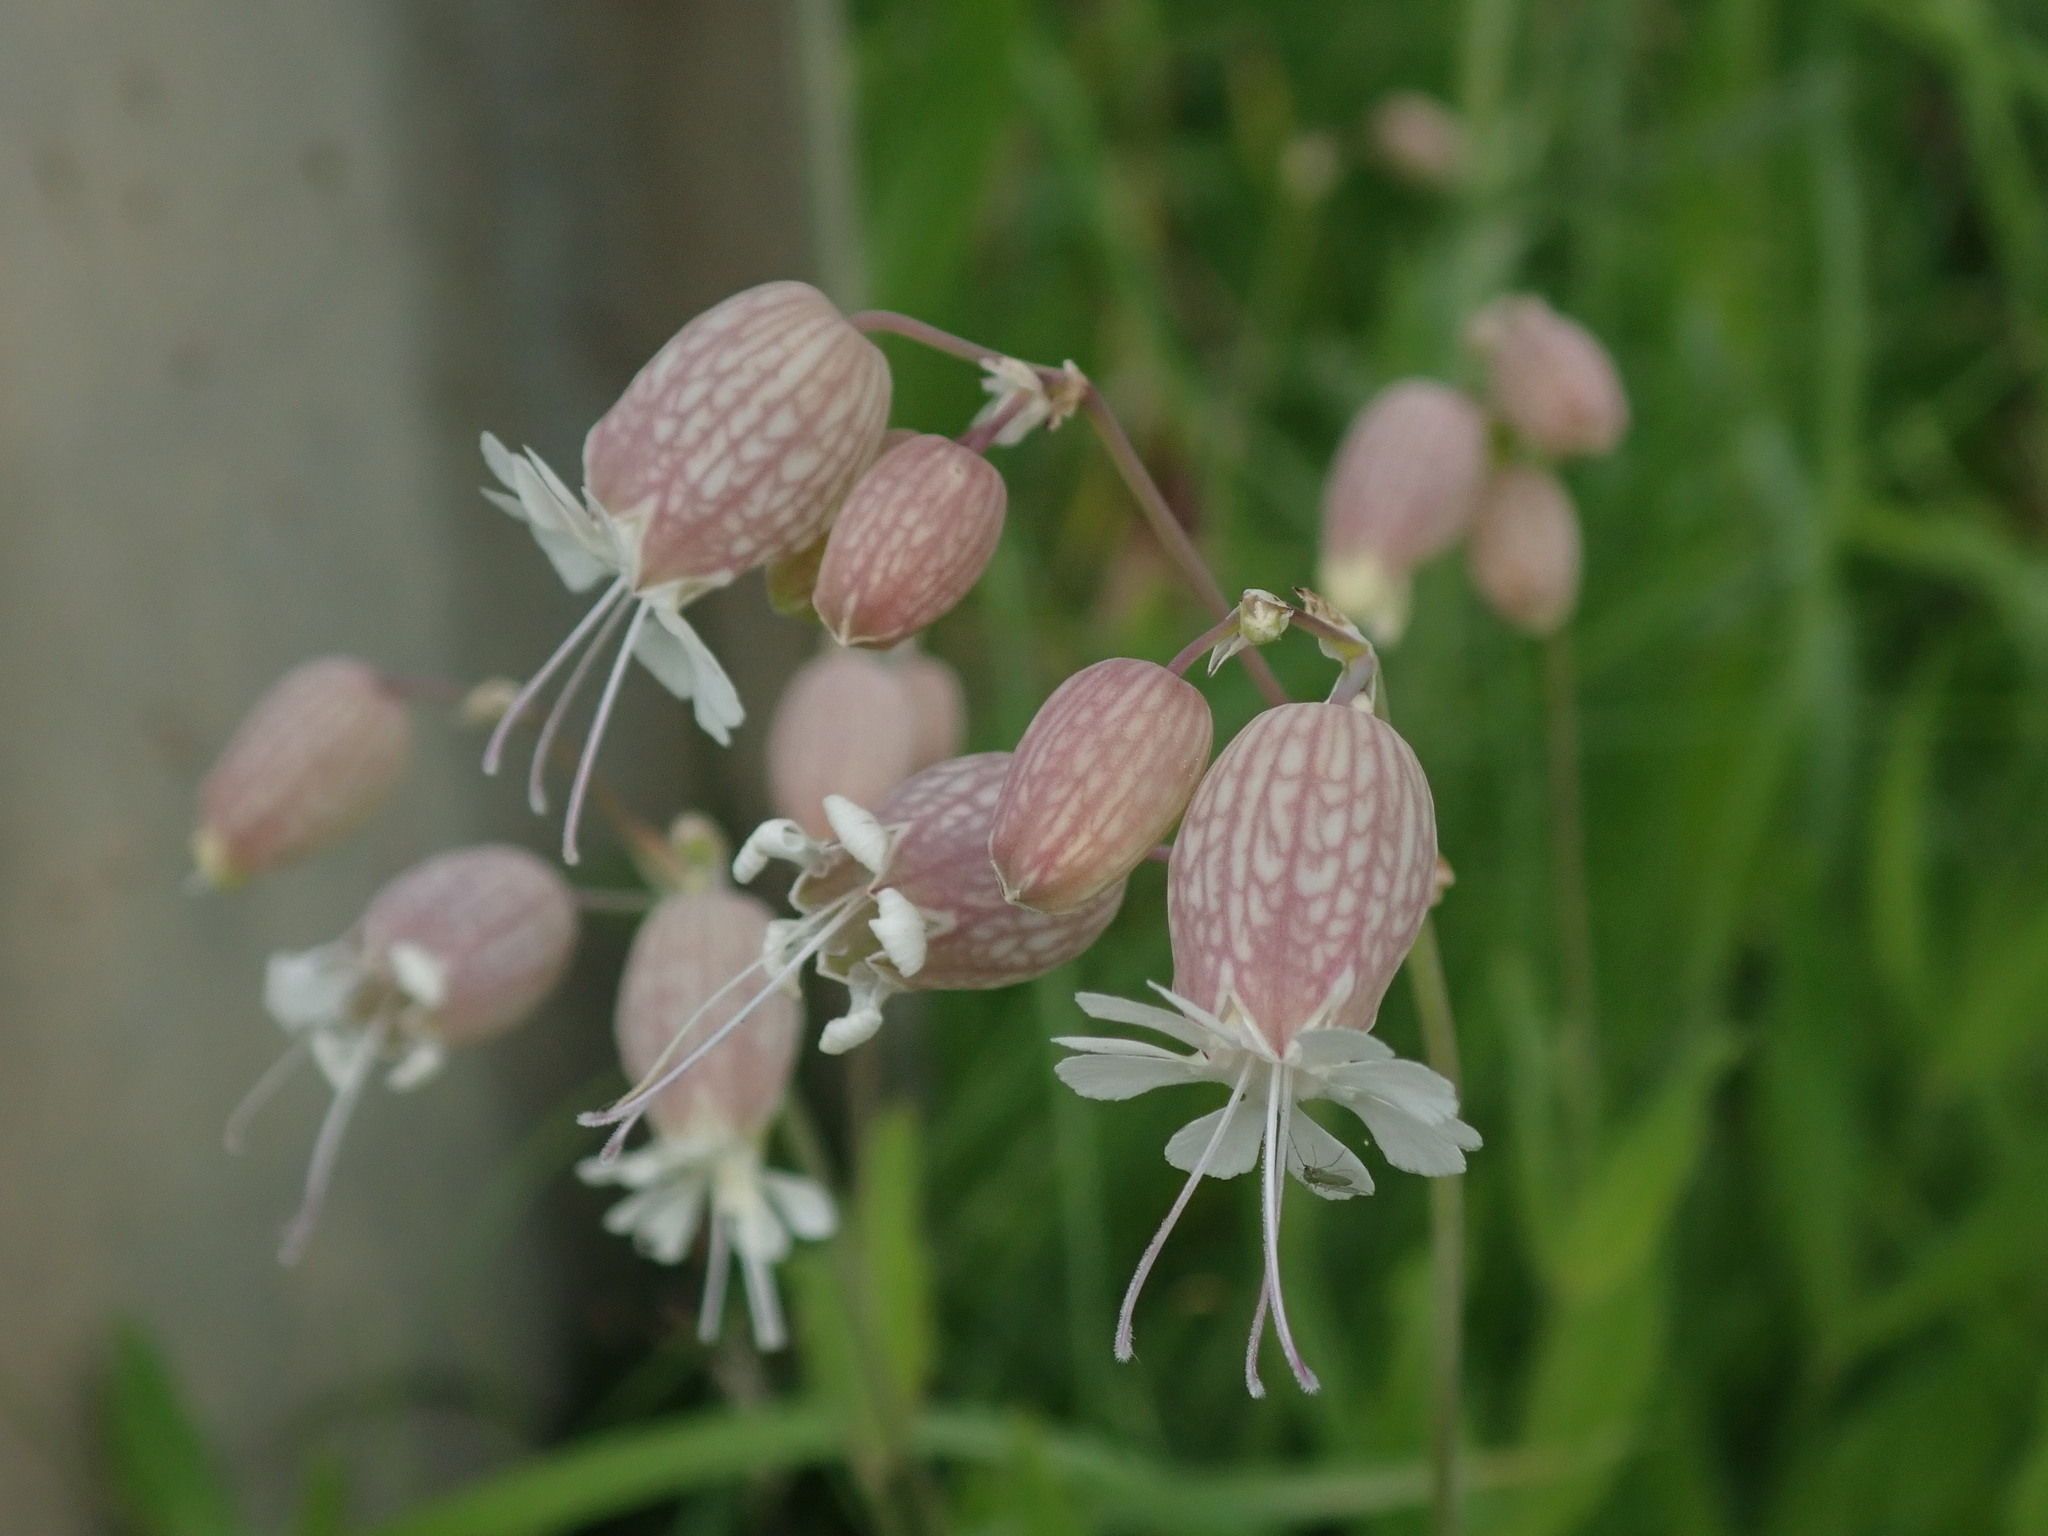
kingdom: Plantae
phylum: Tracheophyta
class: Magnoliopsida
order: Caryophyllales
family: Caryophyllaceae
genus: Silene
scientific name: Silene vulgaris
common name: Bladder campion
